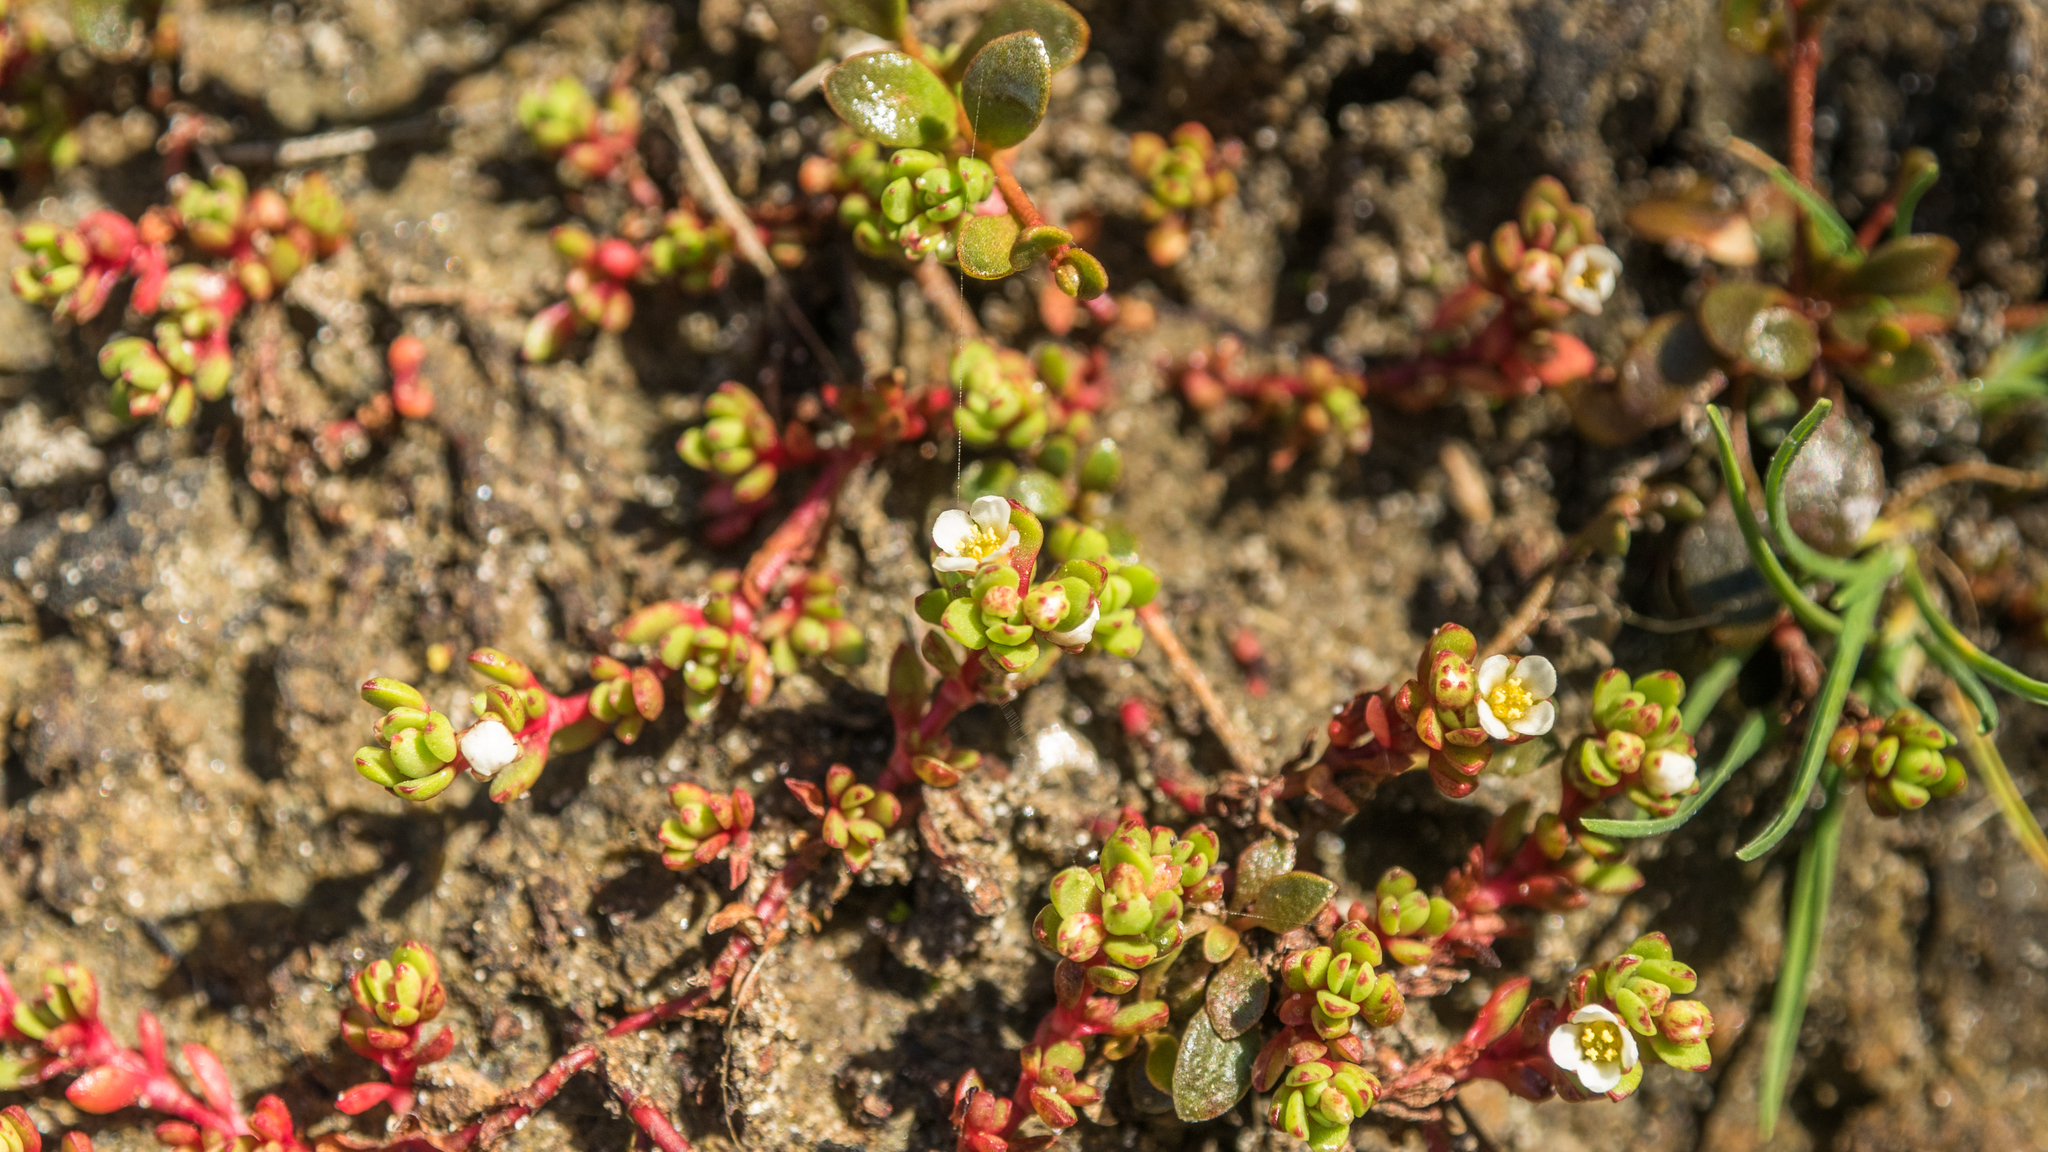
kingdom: Plantae
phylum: Tracheophyta
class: Magnoliopsida
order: Saxifragales
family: Crassulaceae
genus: Crassula
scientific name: Crassula moschata
